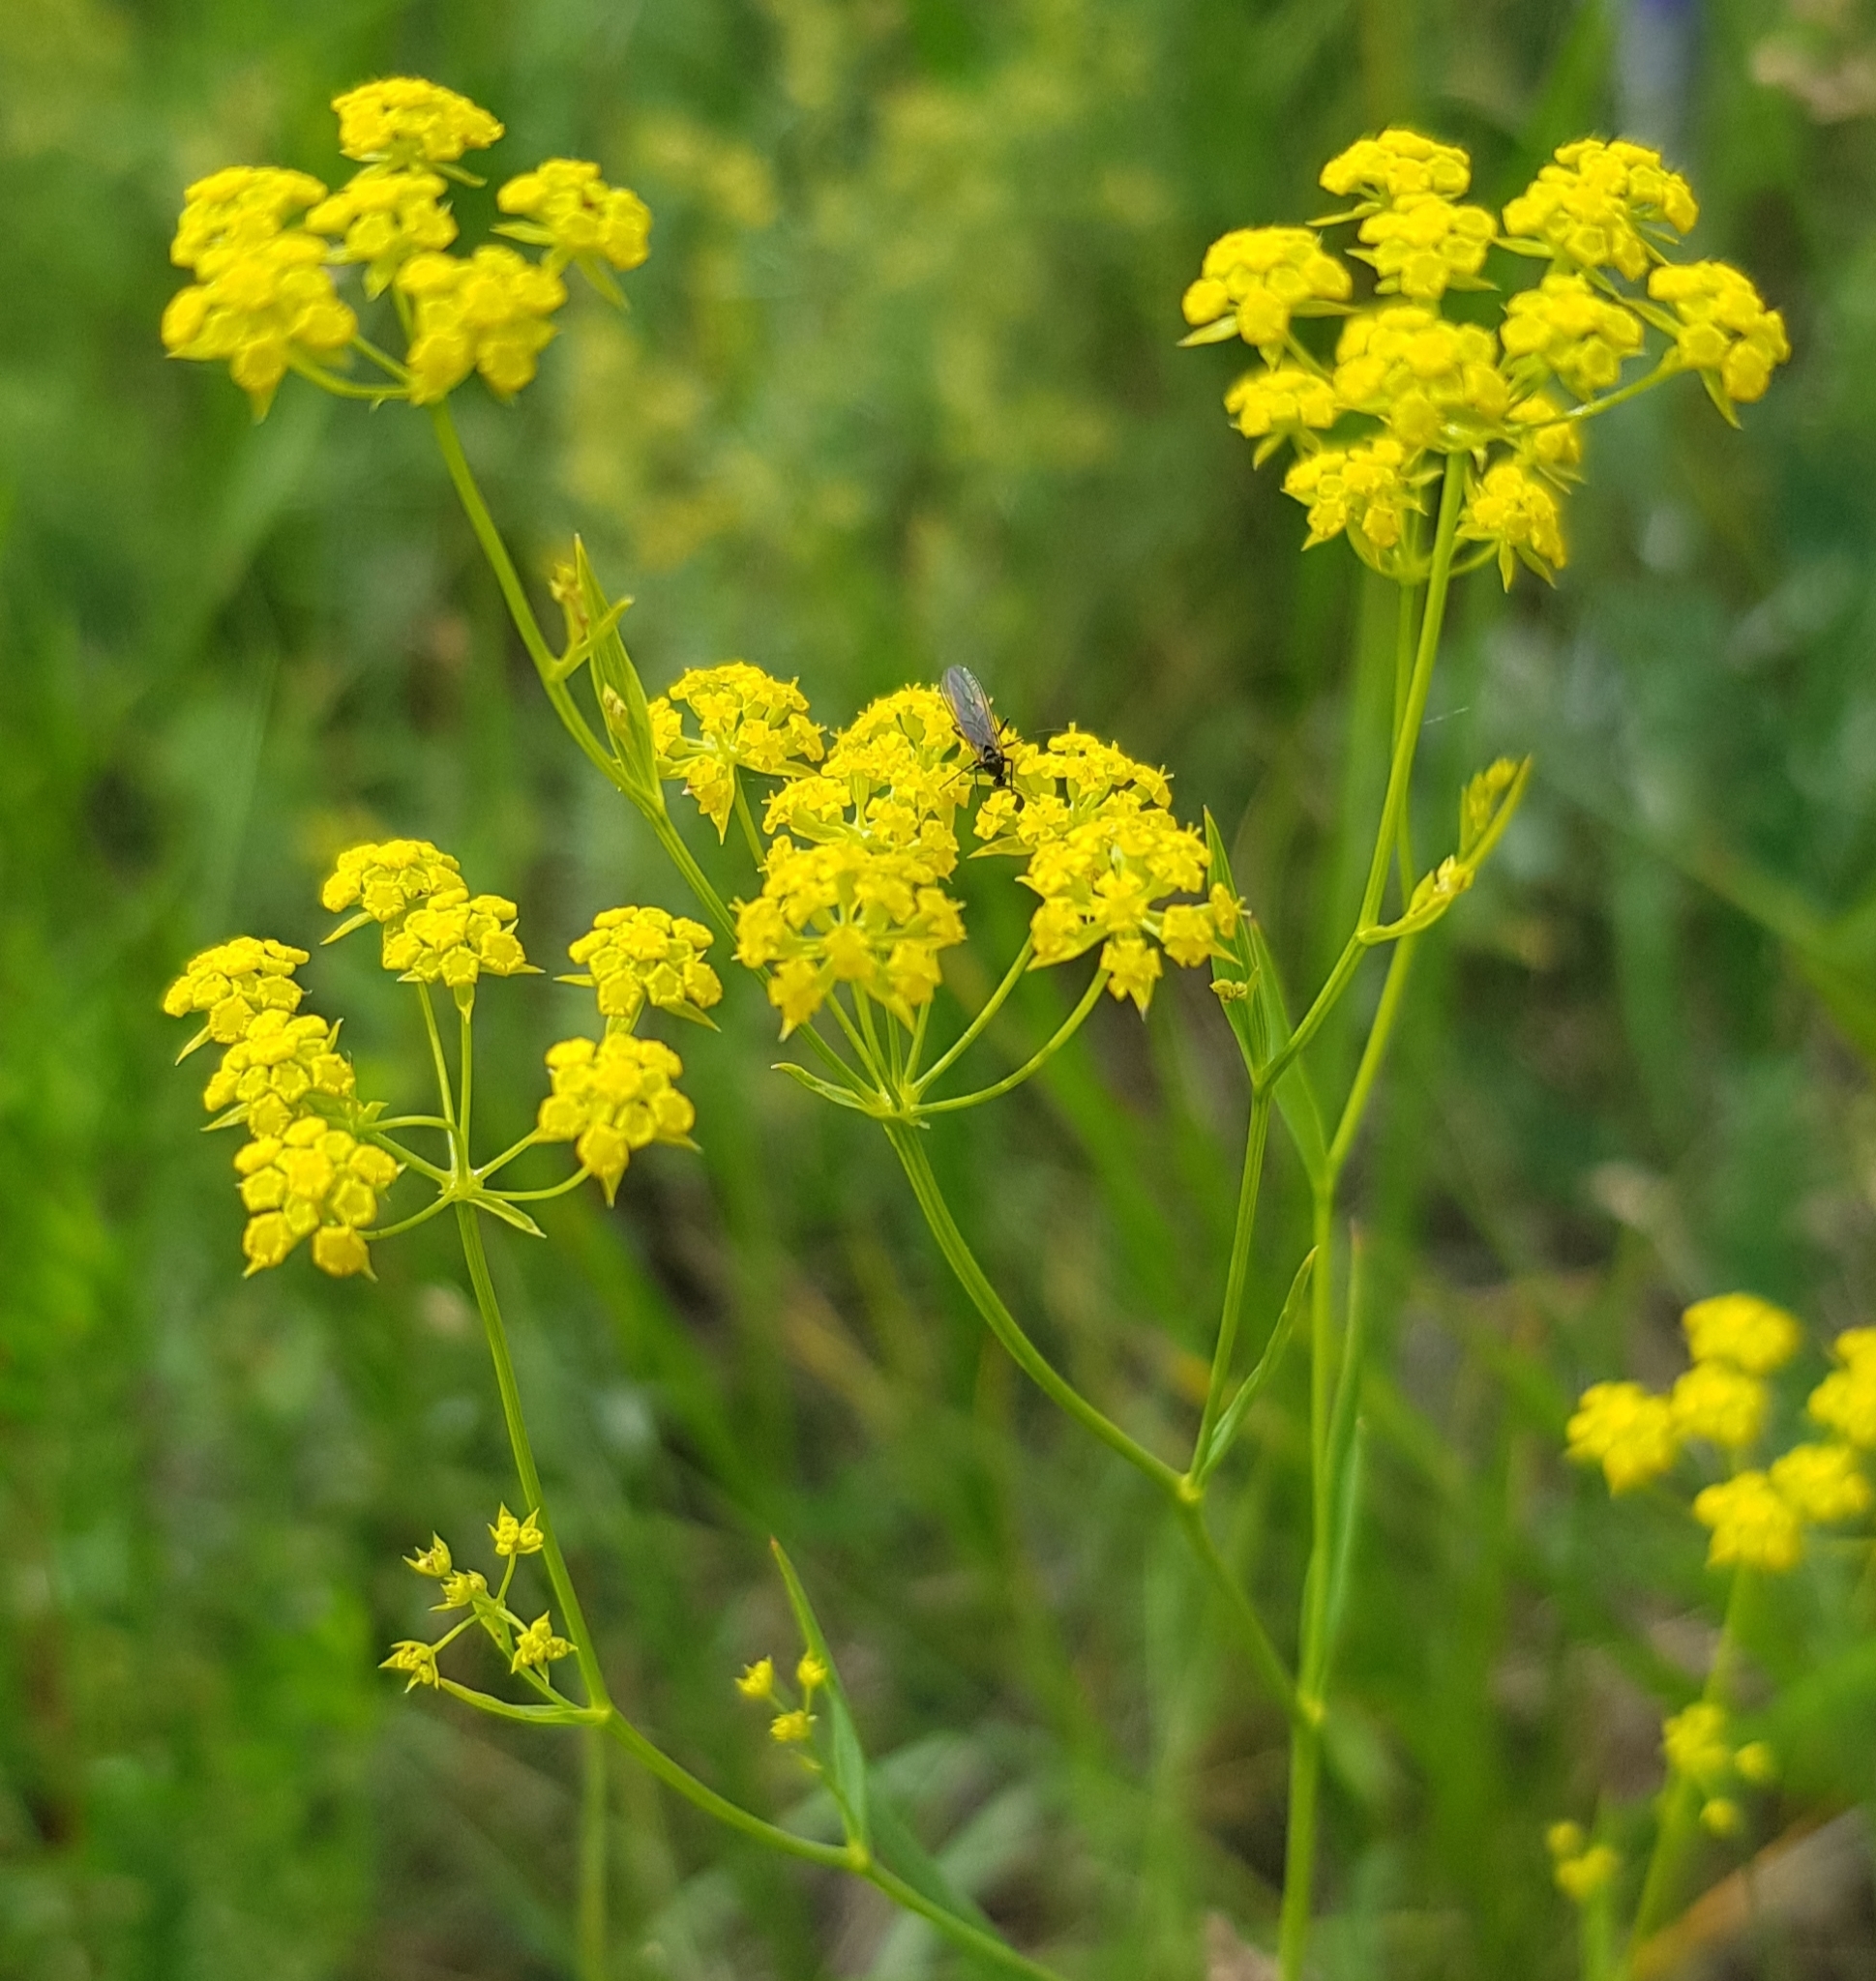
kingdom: Plantae
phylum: Tracheophyta
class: Magnoliopsida
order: Apiales
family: Apiaceae
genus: Bupleurum
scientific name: Bupleurum scorzonerifolium
